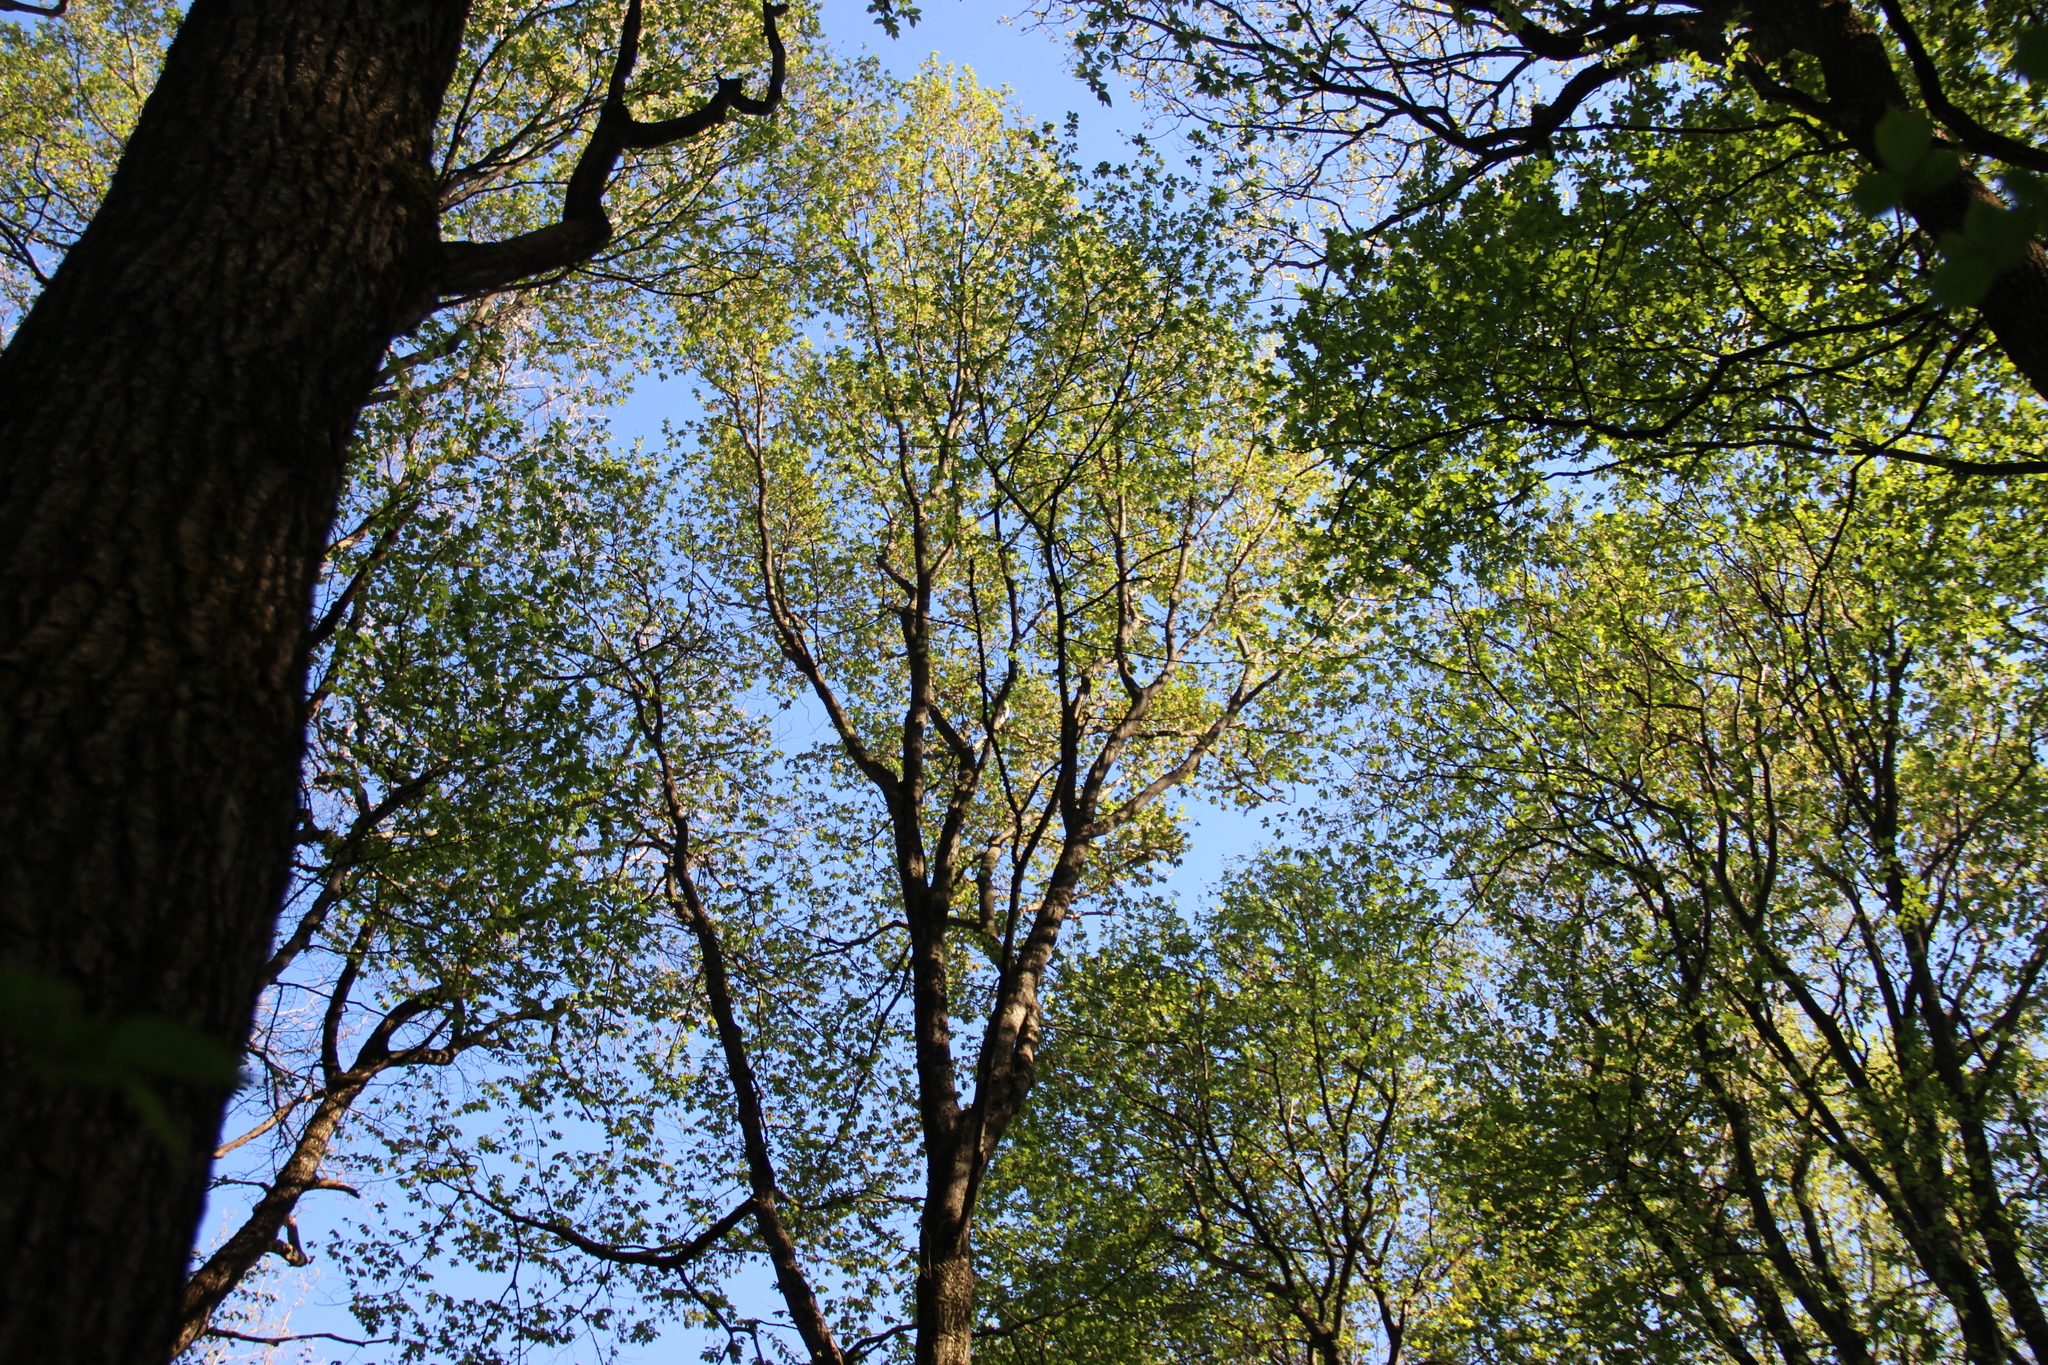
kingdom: Plantae
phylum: Tracheophyta
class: Magnoliopsida
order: Malpighiales
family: Salicaceae
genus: Populus
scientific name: Populus tremula
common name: European aspen
